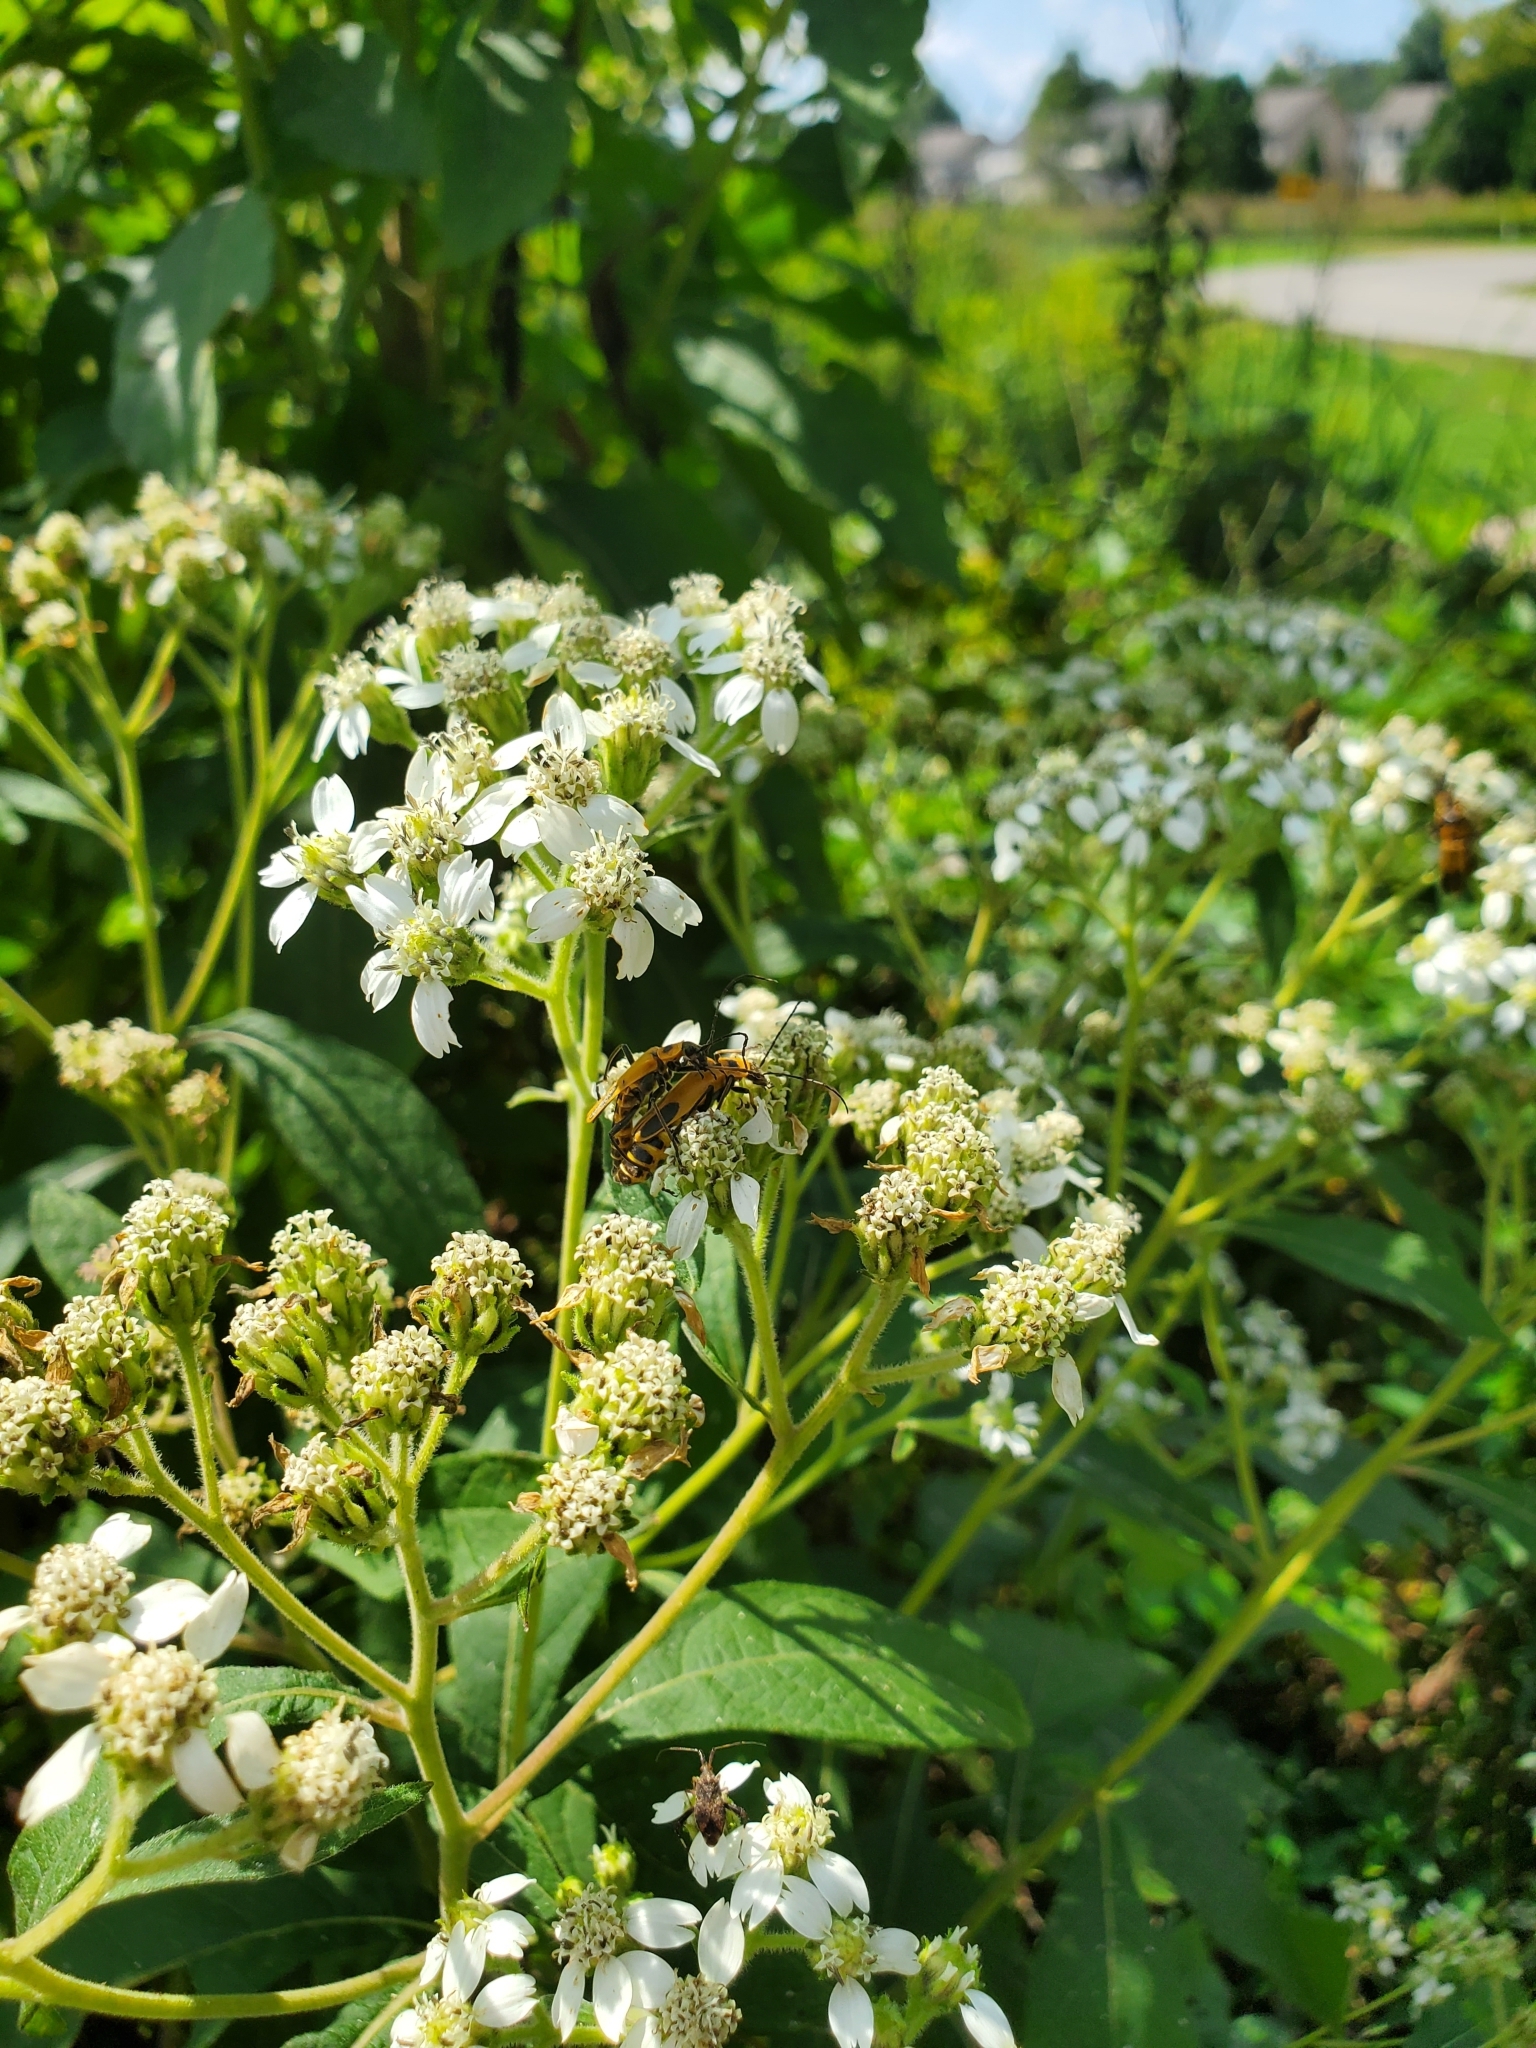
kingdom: Plantae
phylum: Tracheophyta
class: Magnoliopsida
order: Asterales
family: Asteraceae
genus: Verbesina
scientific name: Verbesina virginica
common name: Frostweed
